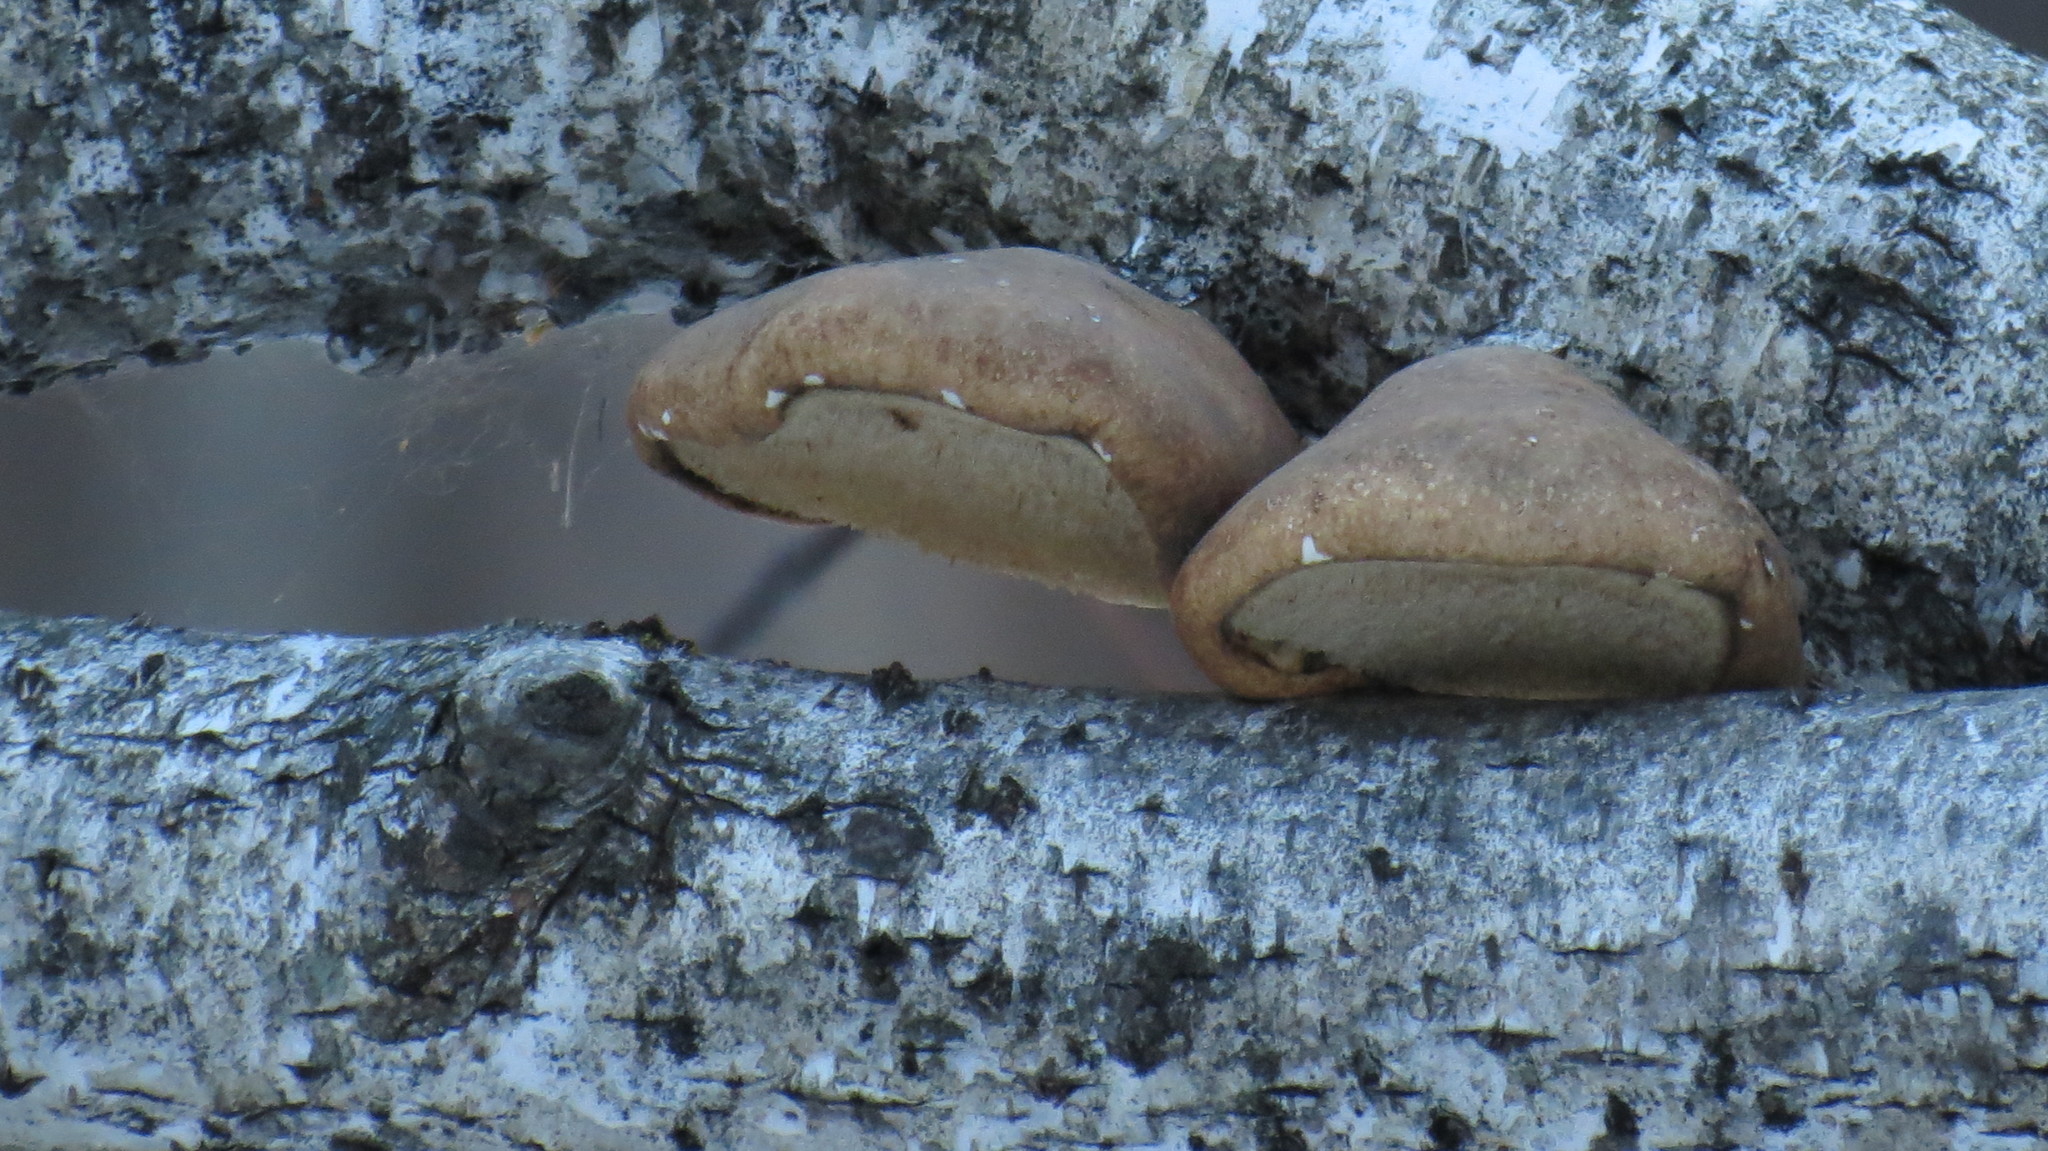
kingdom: Fungi
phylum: Basidiomycota
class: Agaricomycetes
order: Polyporales
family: Fomitopsidaceae
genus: Fomitopsis
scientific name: Fomitopsis betulina
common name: Birch polypore
